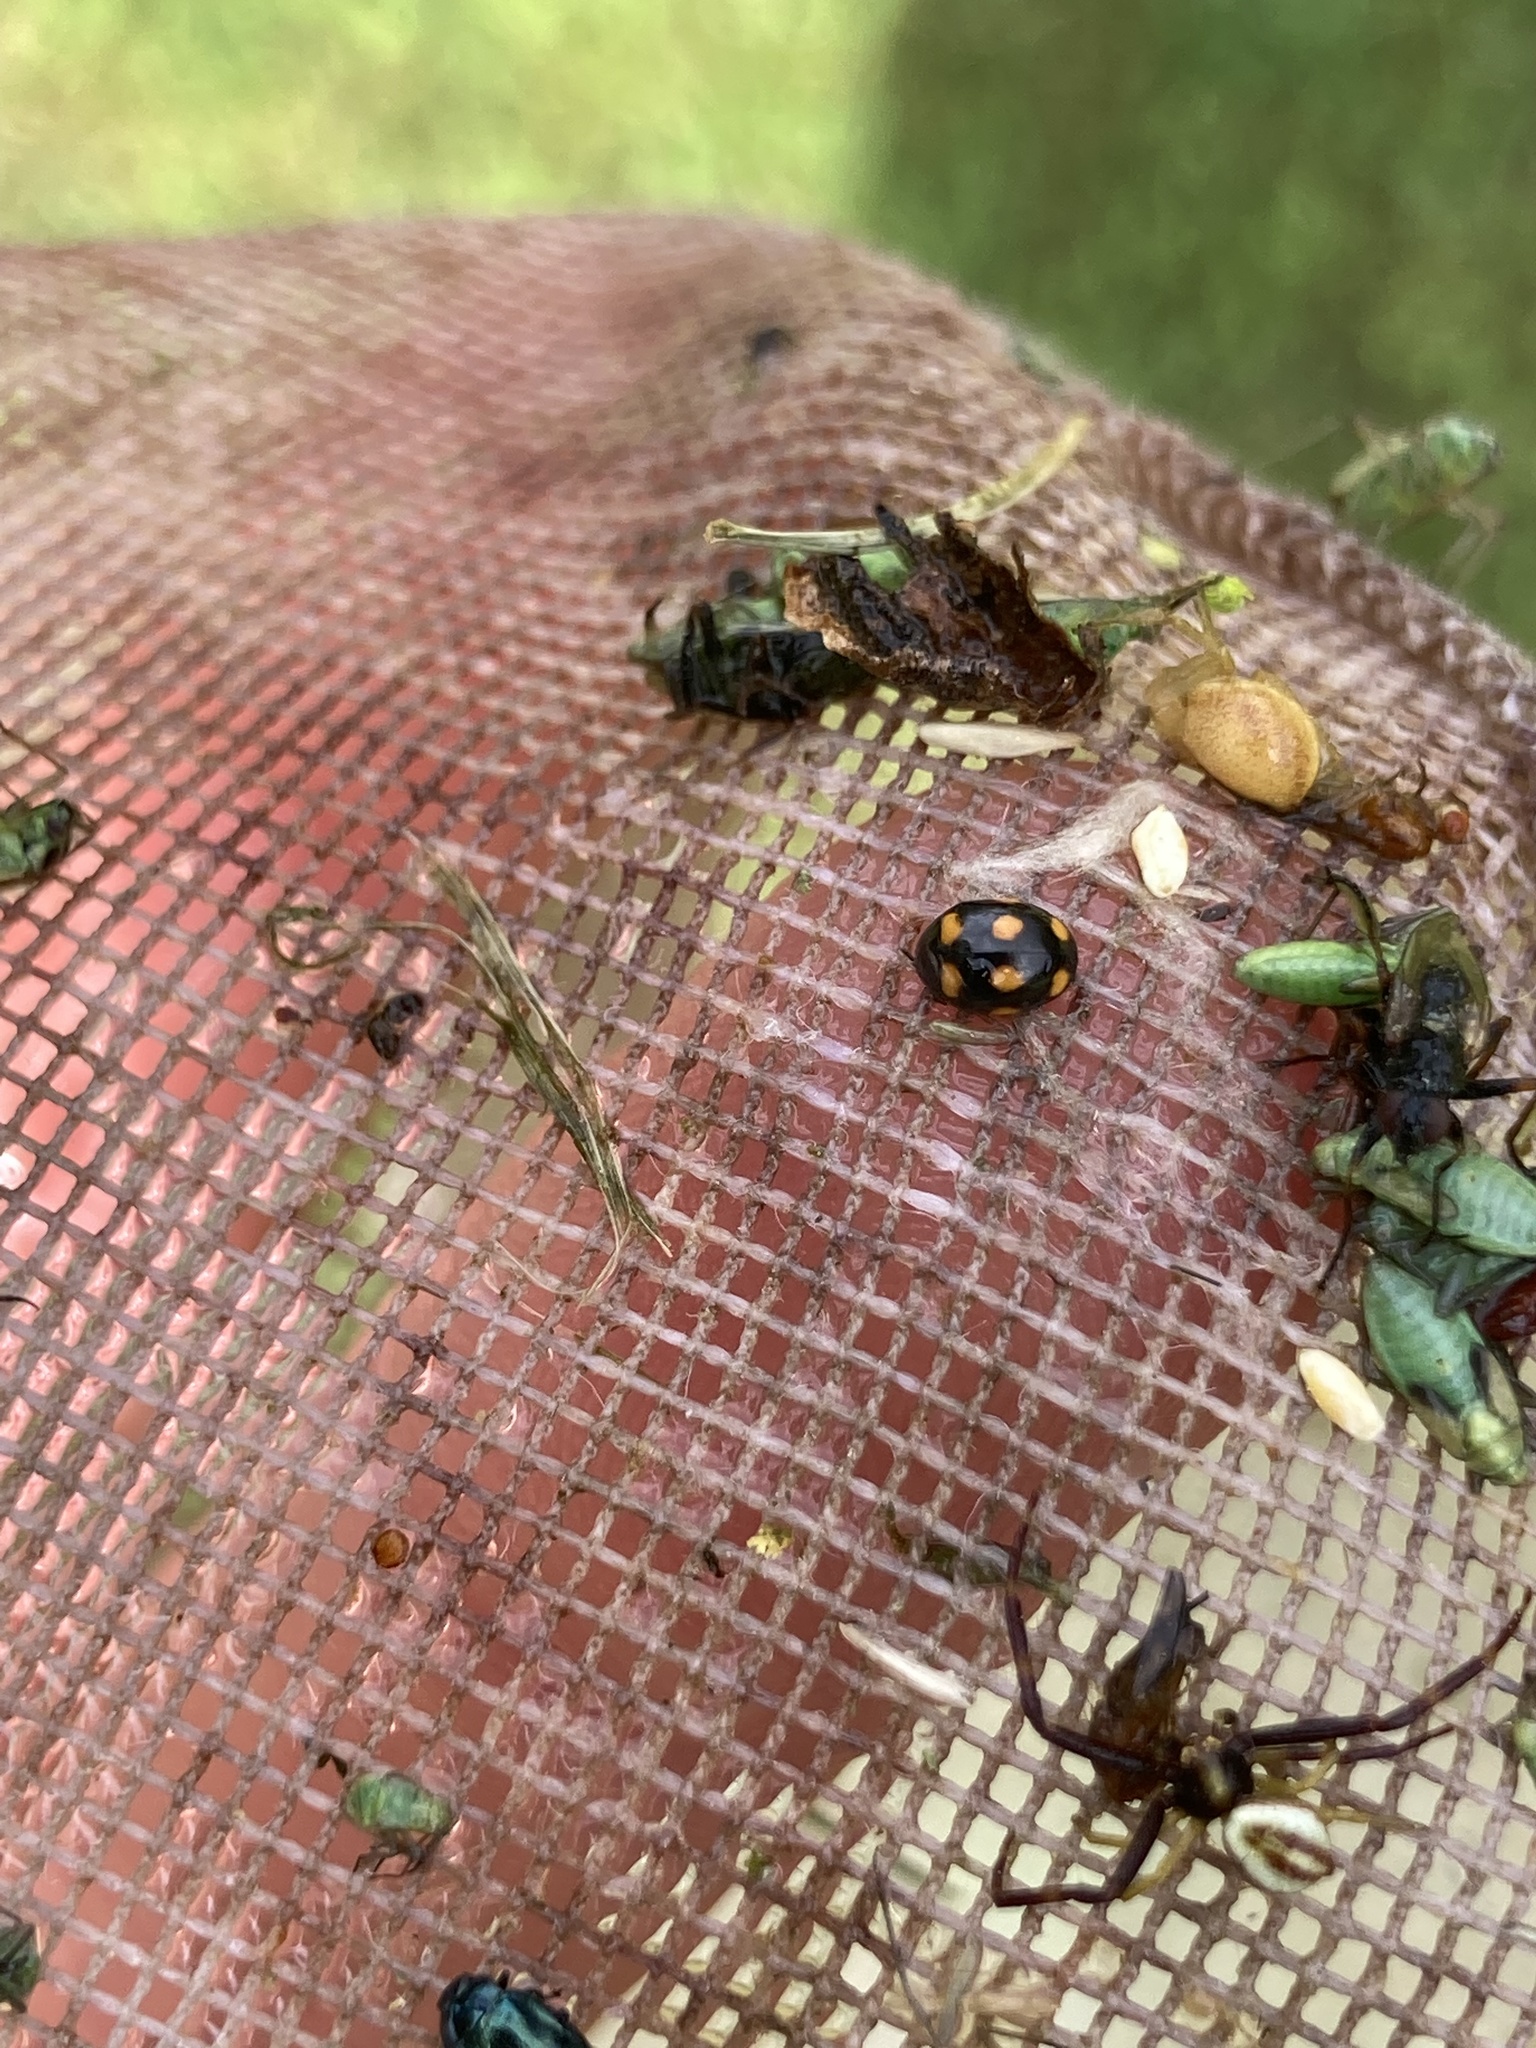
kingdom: Animalia
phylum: Arthropoda
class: Insecta
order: Coleoptera
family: Coccinellidae
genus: Brachiacantha
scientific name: Brachiacantha ursina
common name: Ursine spurleg lady beetle
